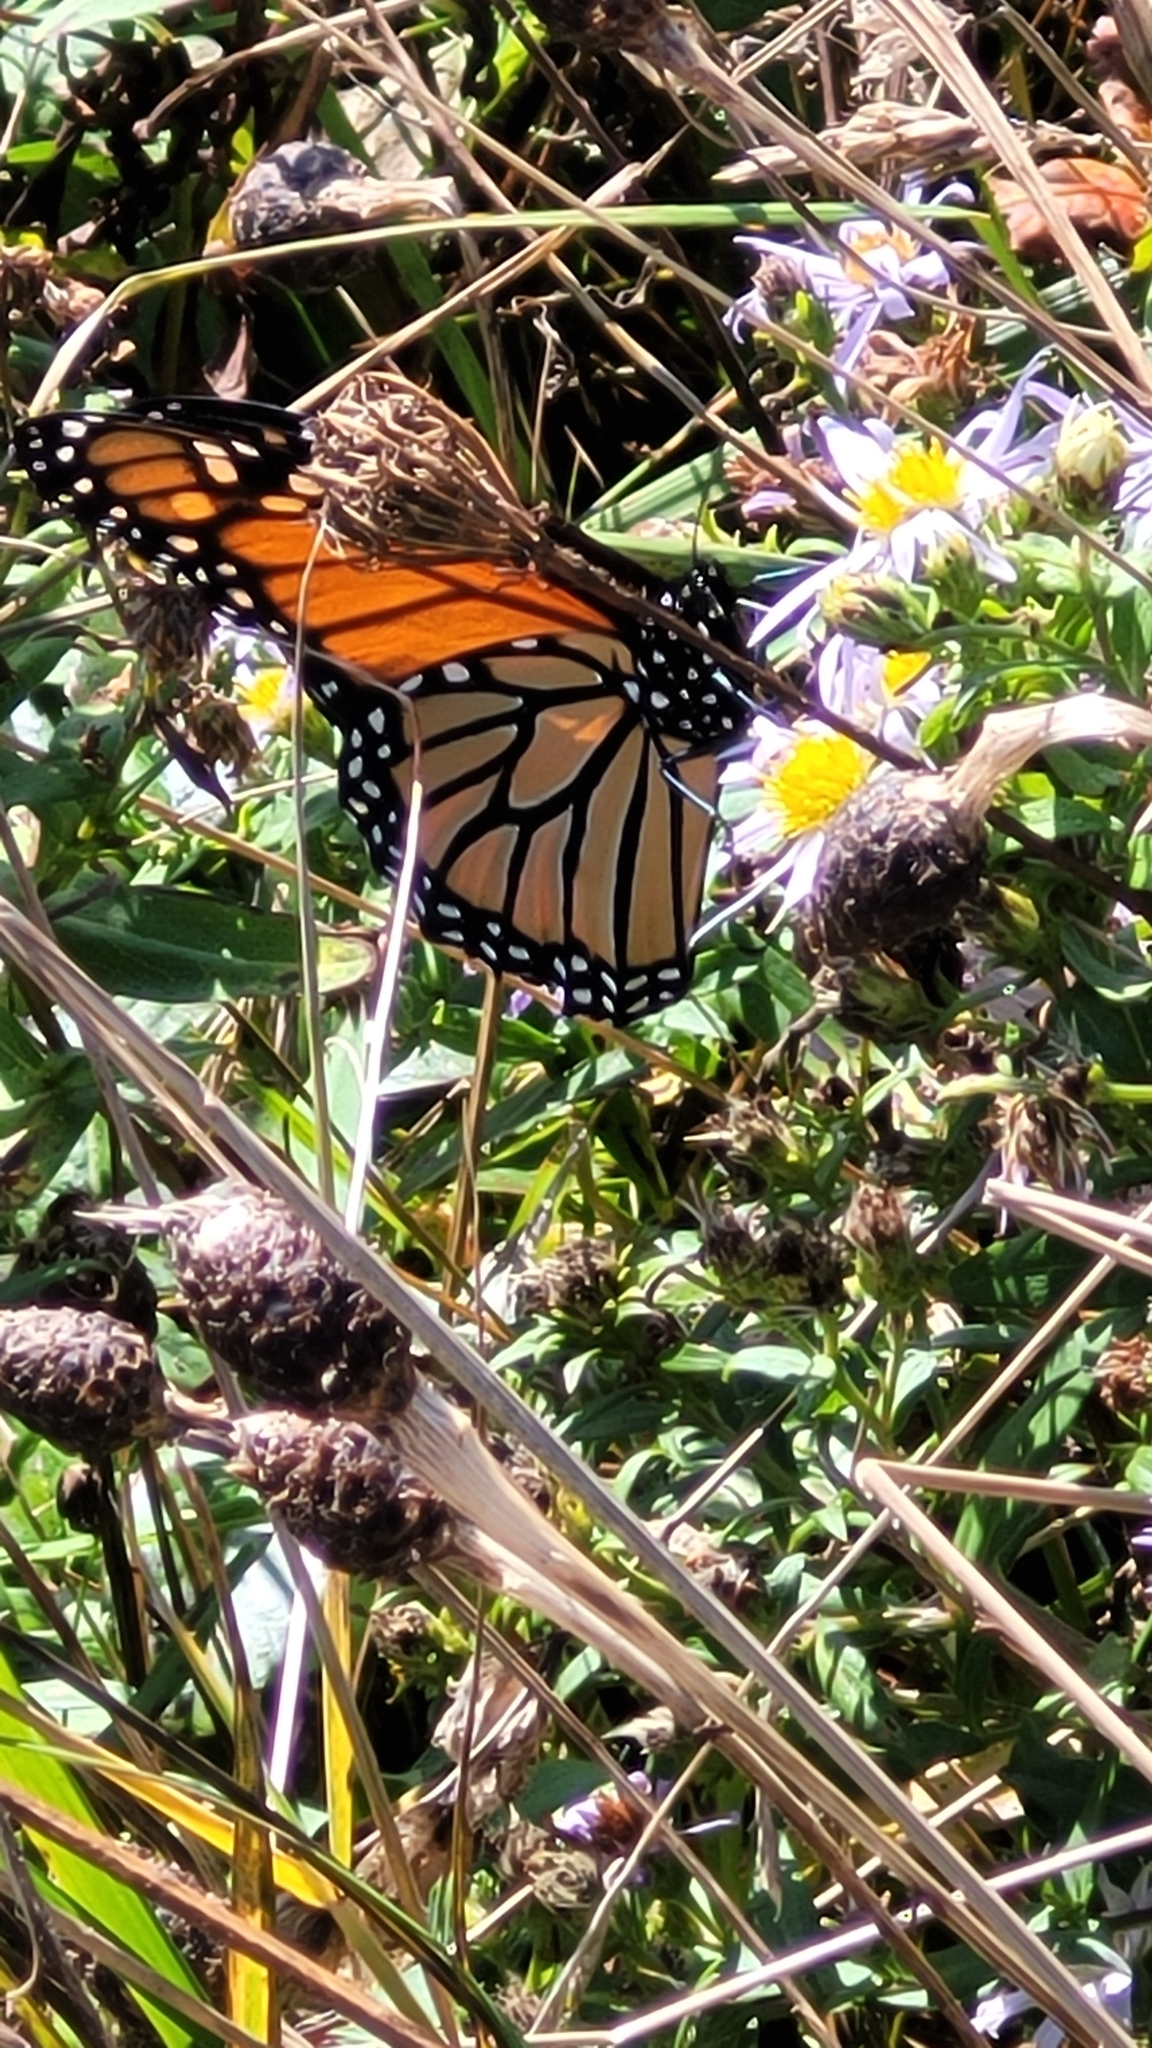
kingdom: Animalia
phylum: Arthropoda
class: Insecta
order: Lepidoptera
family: Nymphalidae
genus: Danaus
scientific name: Danaus plexippus
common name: Monarch
